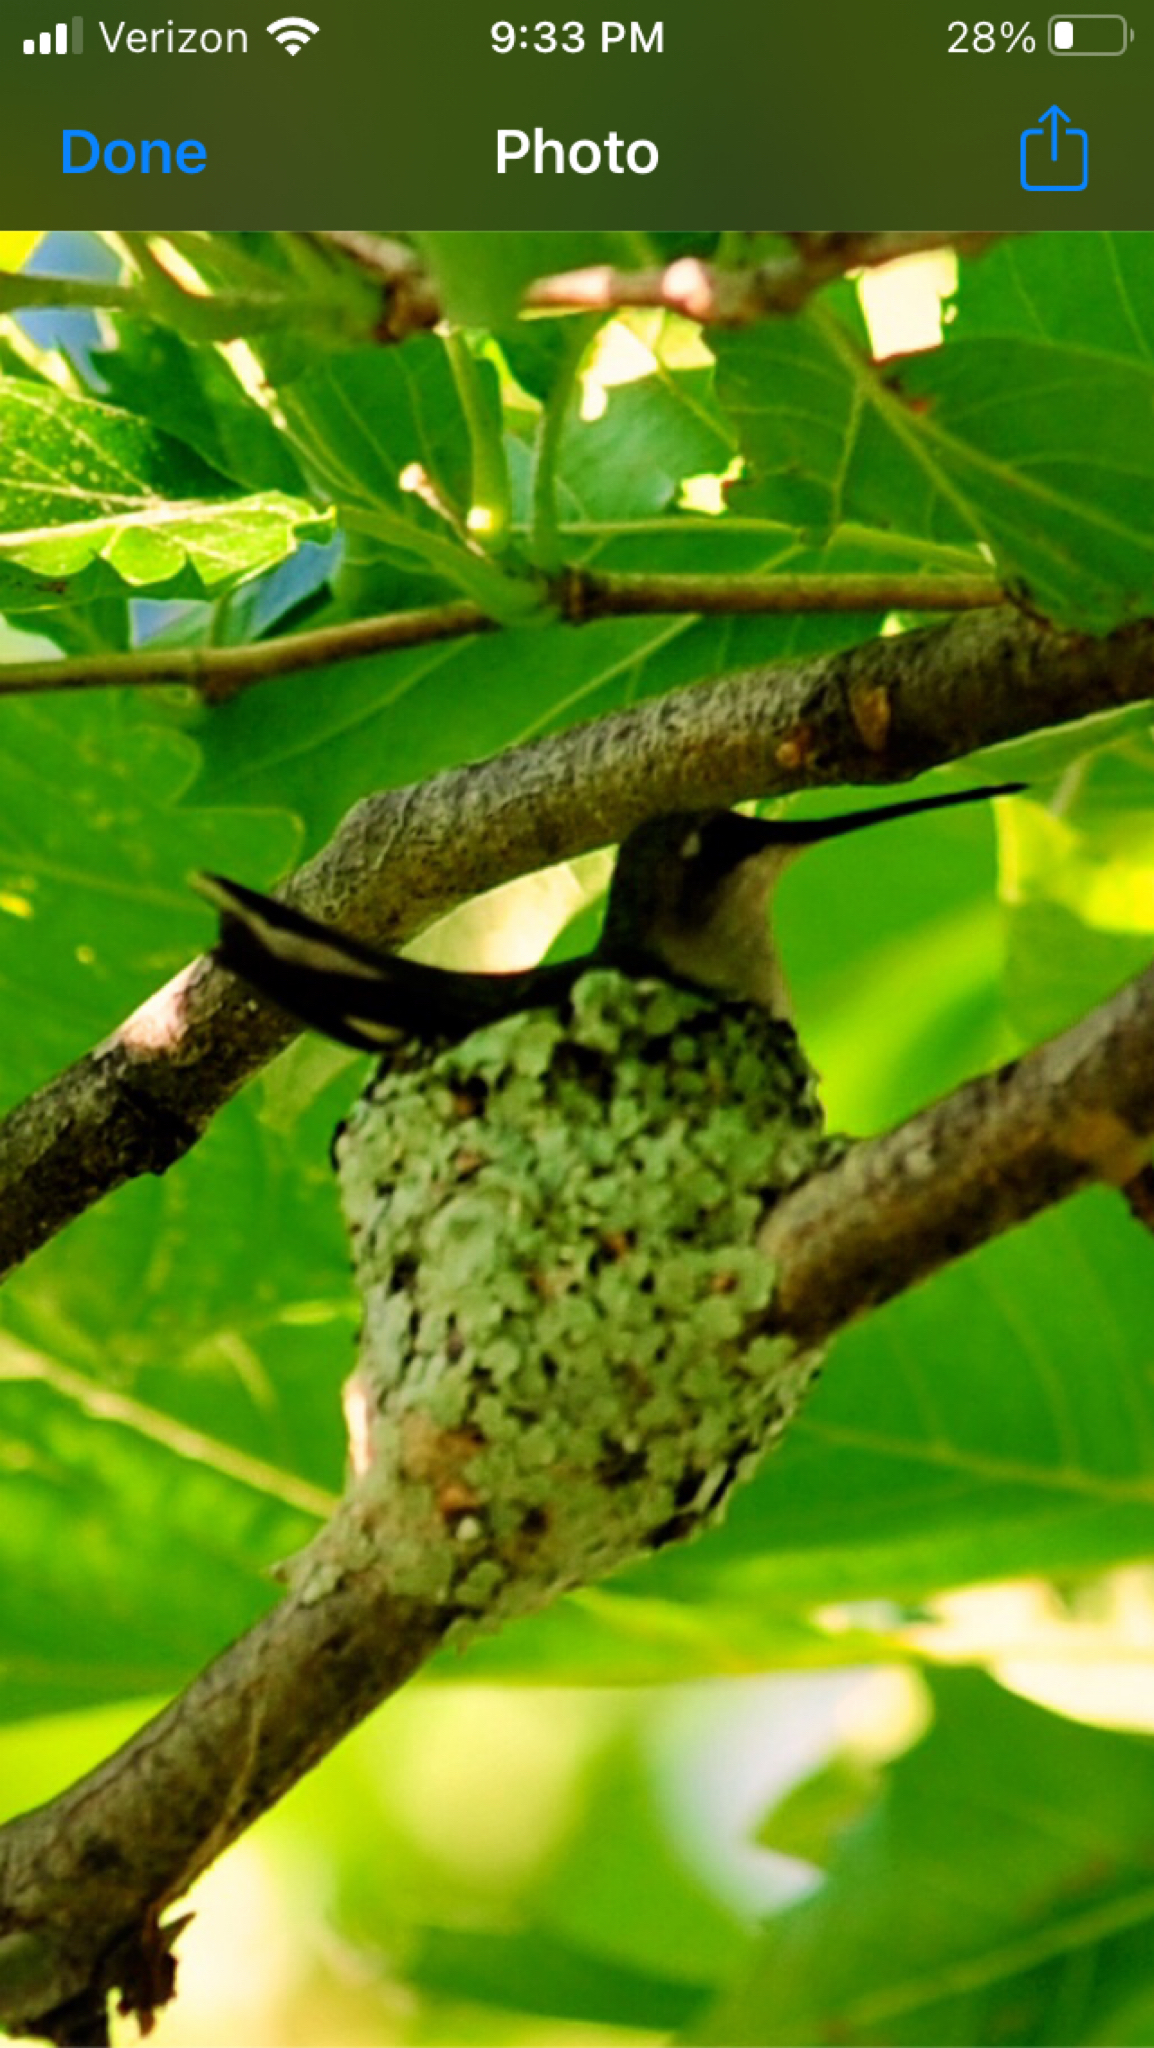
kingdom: Animalia
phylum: Chordata
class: Aves
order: Apodiformes
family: Trochilidae
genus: Archilochus
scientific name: Archilochus colubris
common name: Ruby-throated hummingbird
